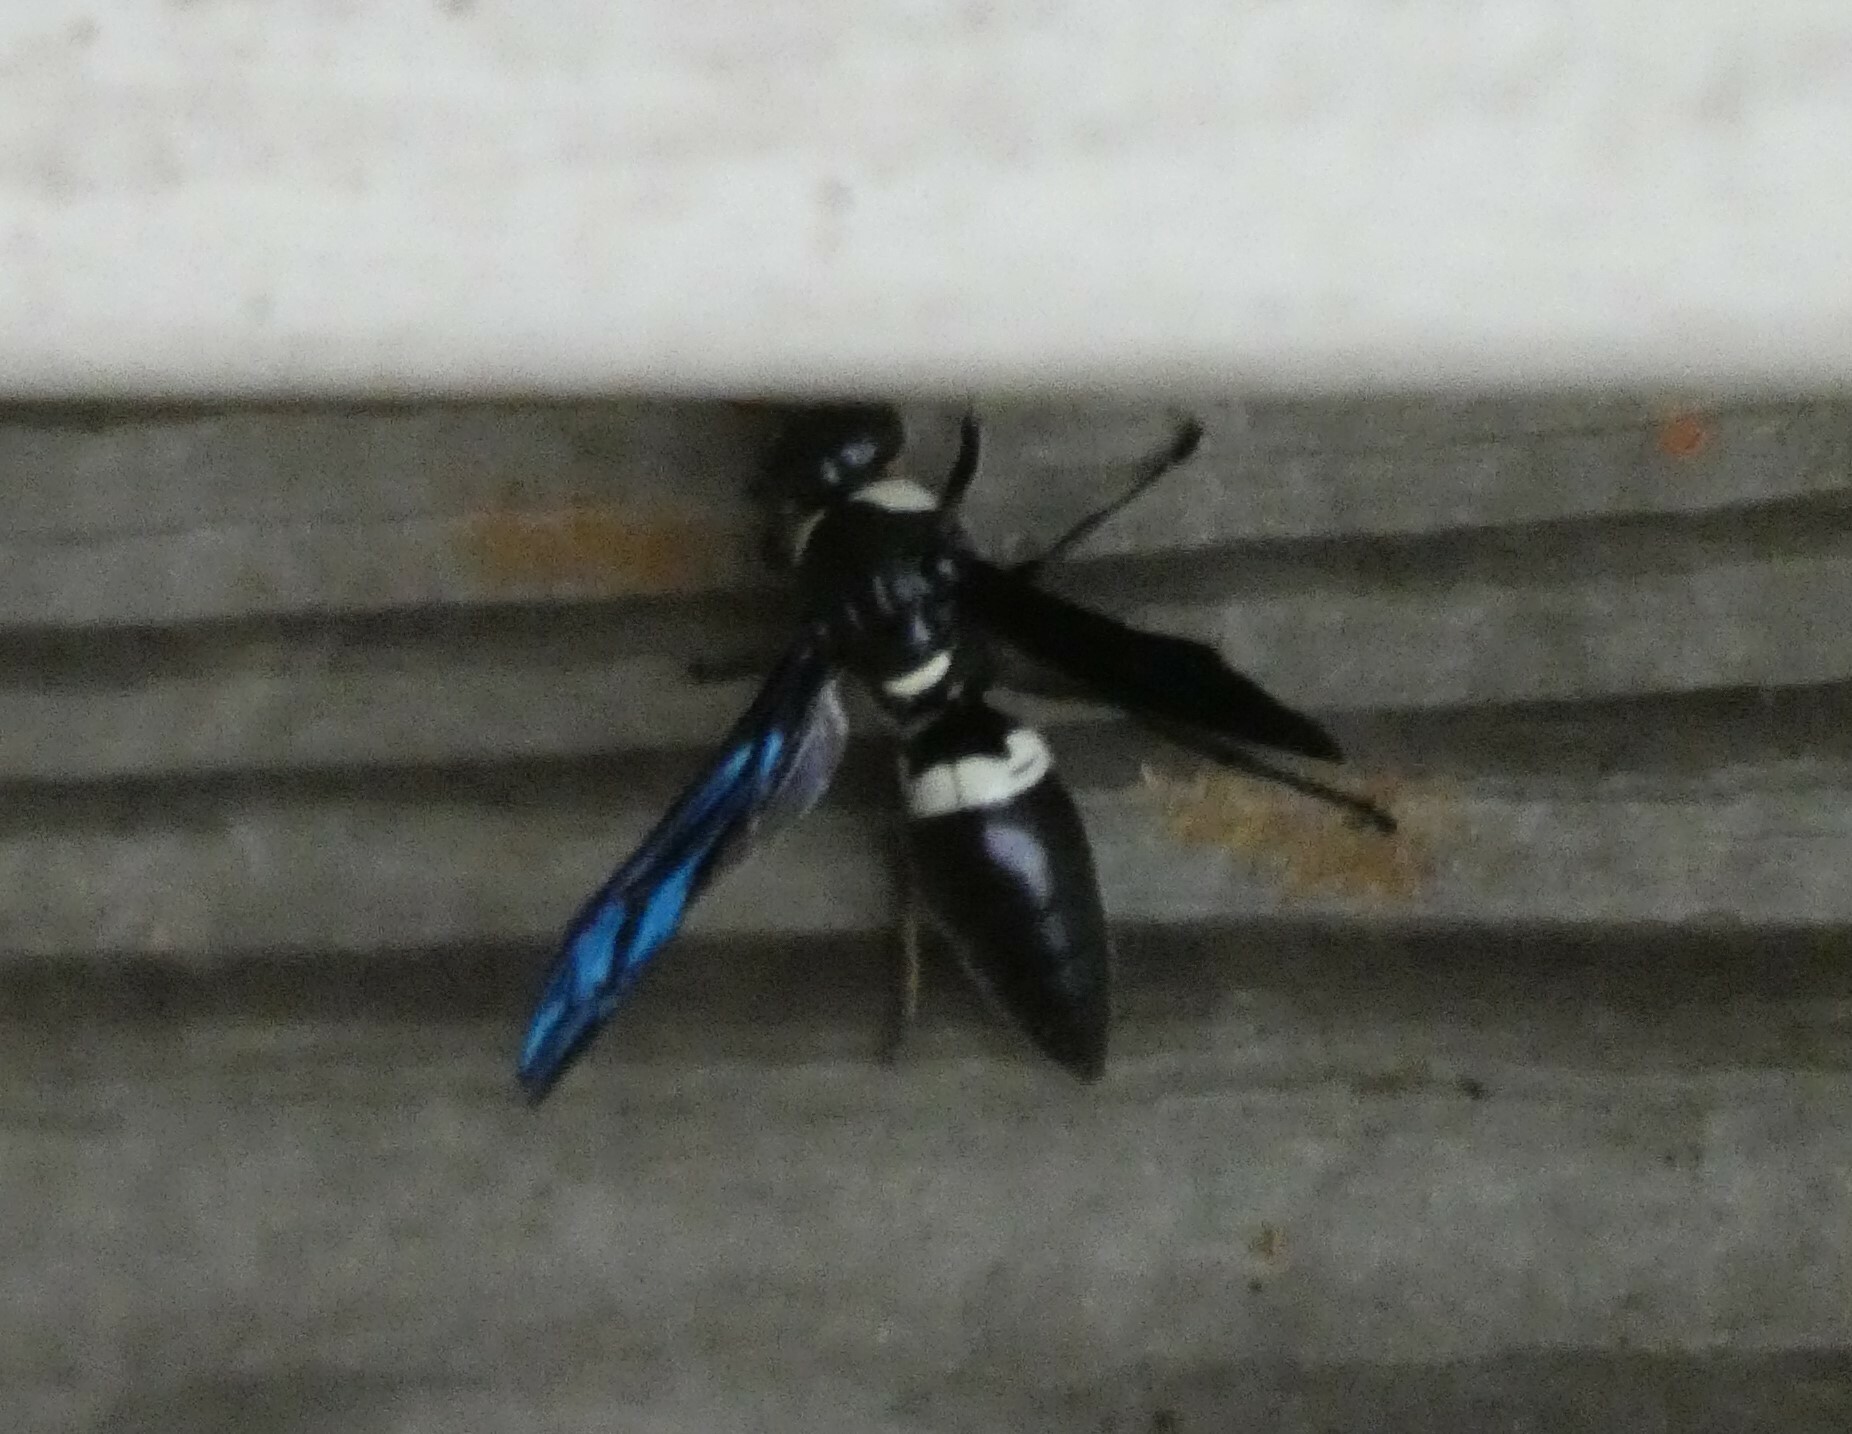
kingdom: Animalia
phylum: Arthropoda
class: Insecta
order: Hymenoptera
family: Eumenidae
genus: Monobia
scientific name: Monobia quadridens
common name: Four-toothed mason wasp
